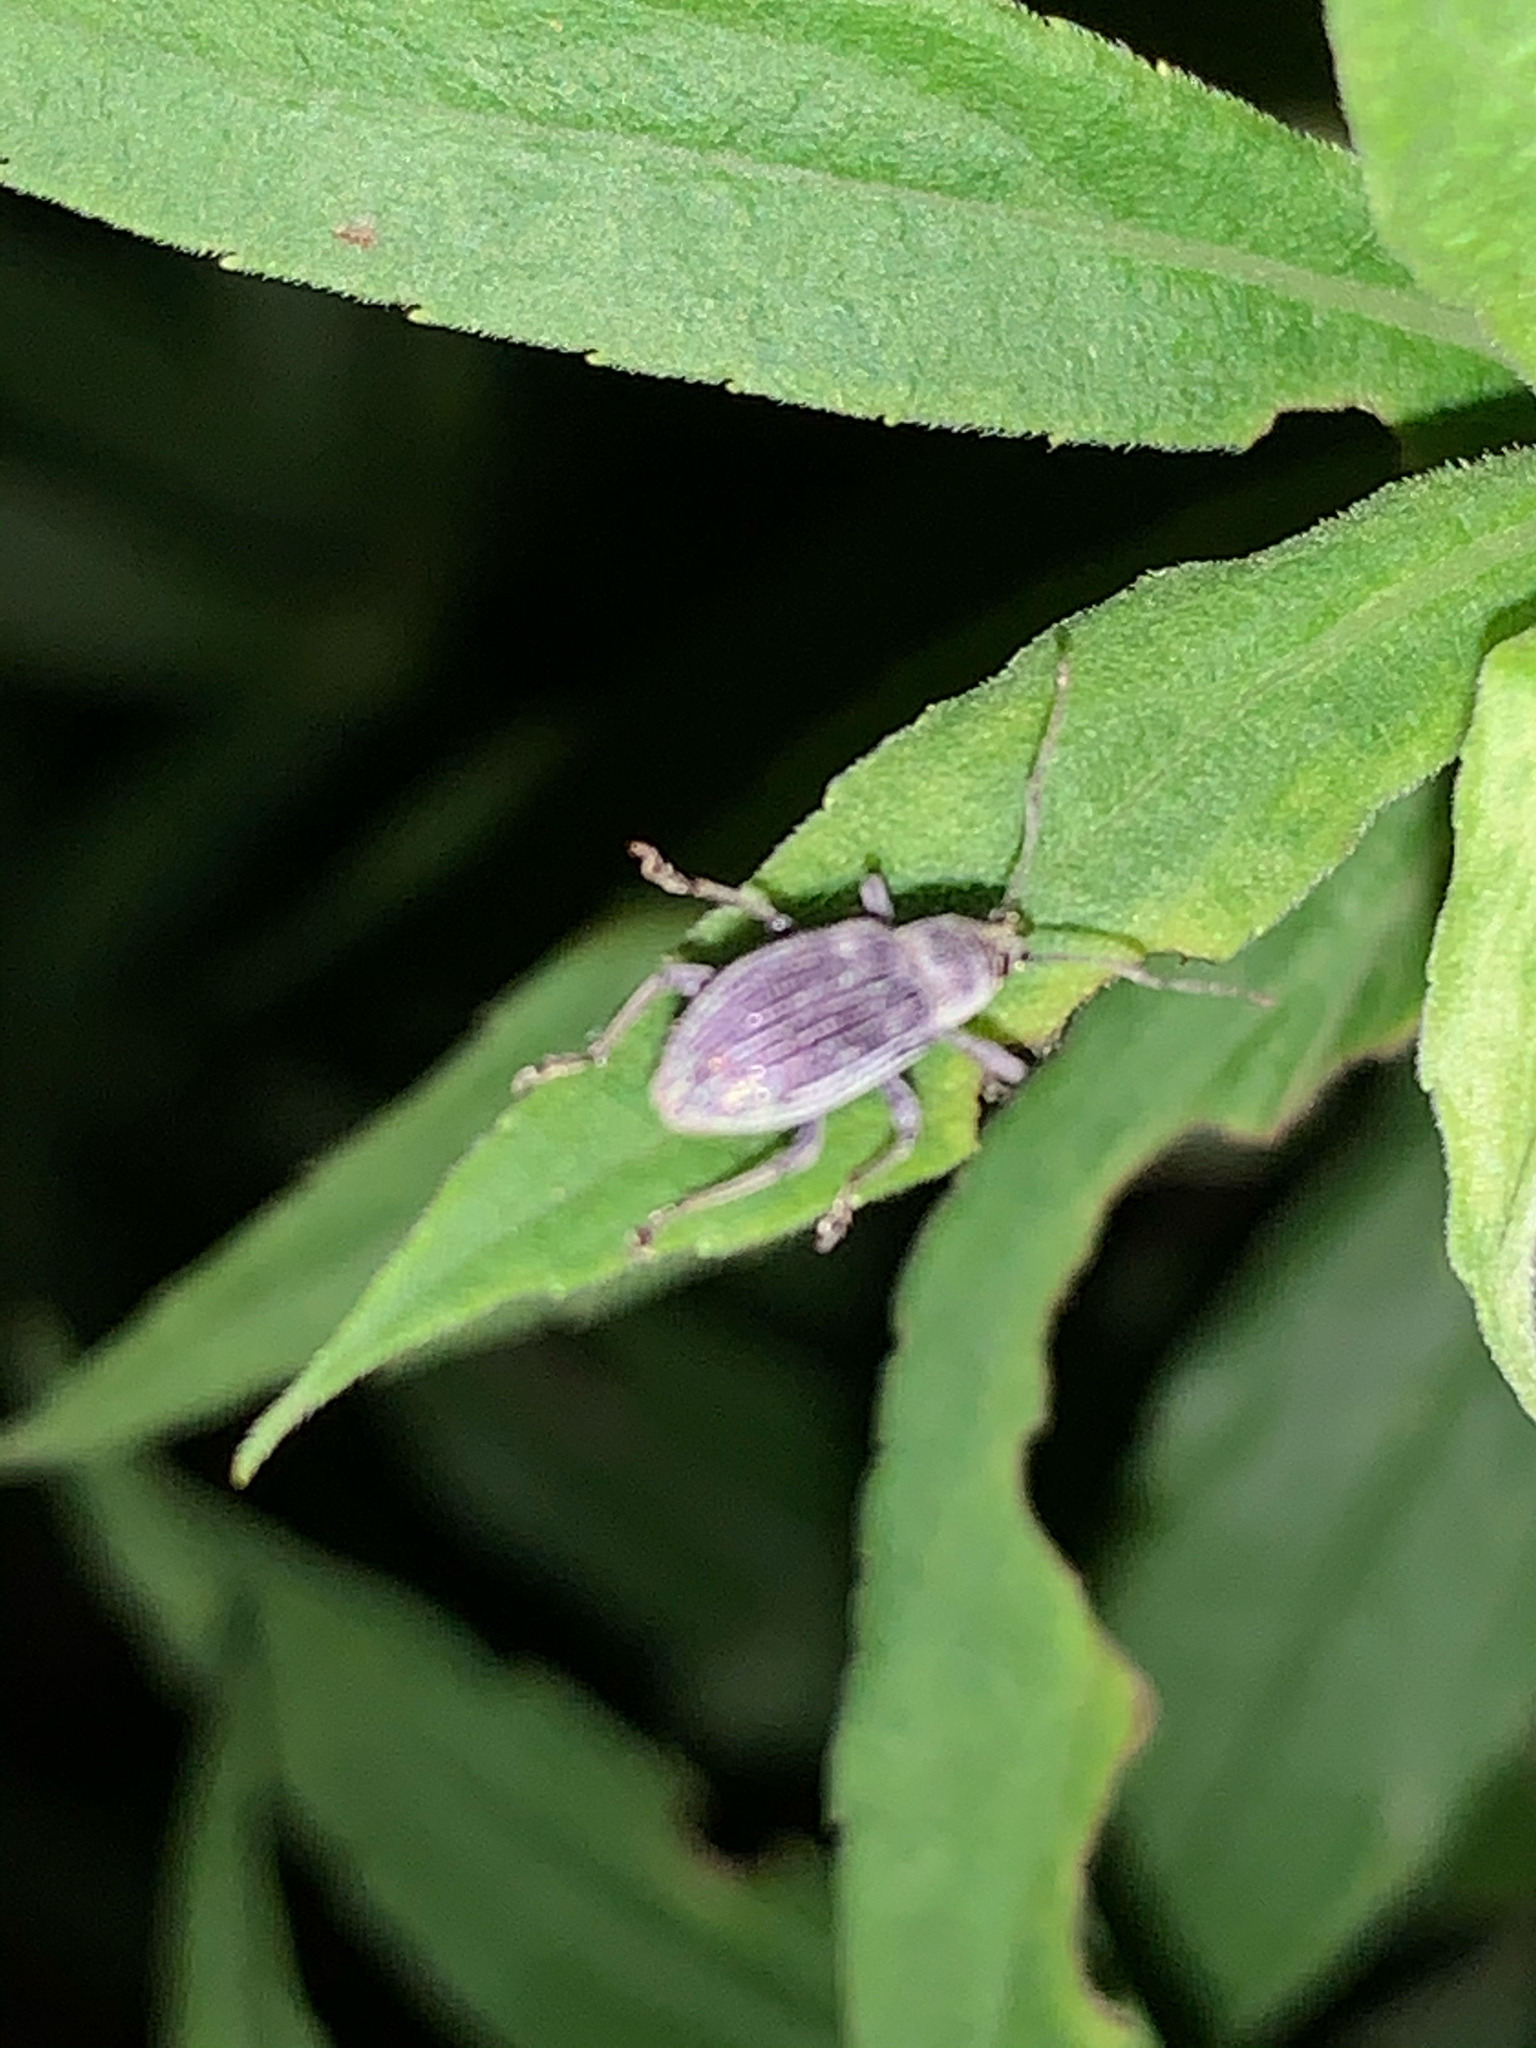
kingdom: Animalia
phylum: Arthropoda
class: Insecta
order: Coleoptera
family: Curculionidae
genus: Cyrtepistomus
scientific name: Cyrtepistomus castaneus
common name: Weevil
